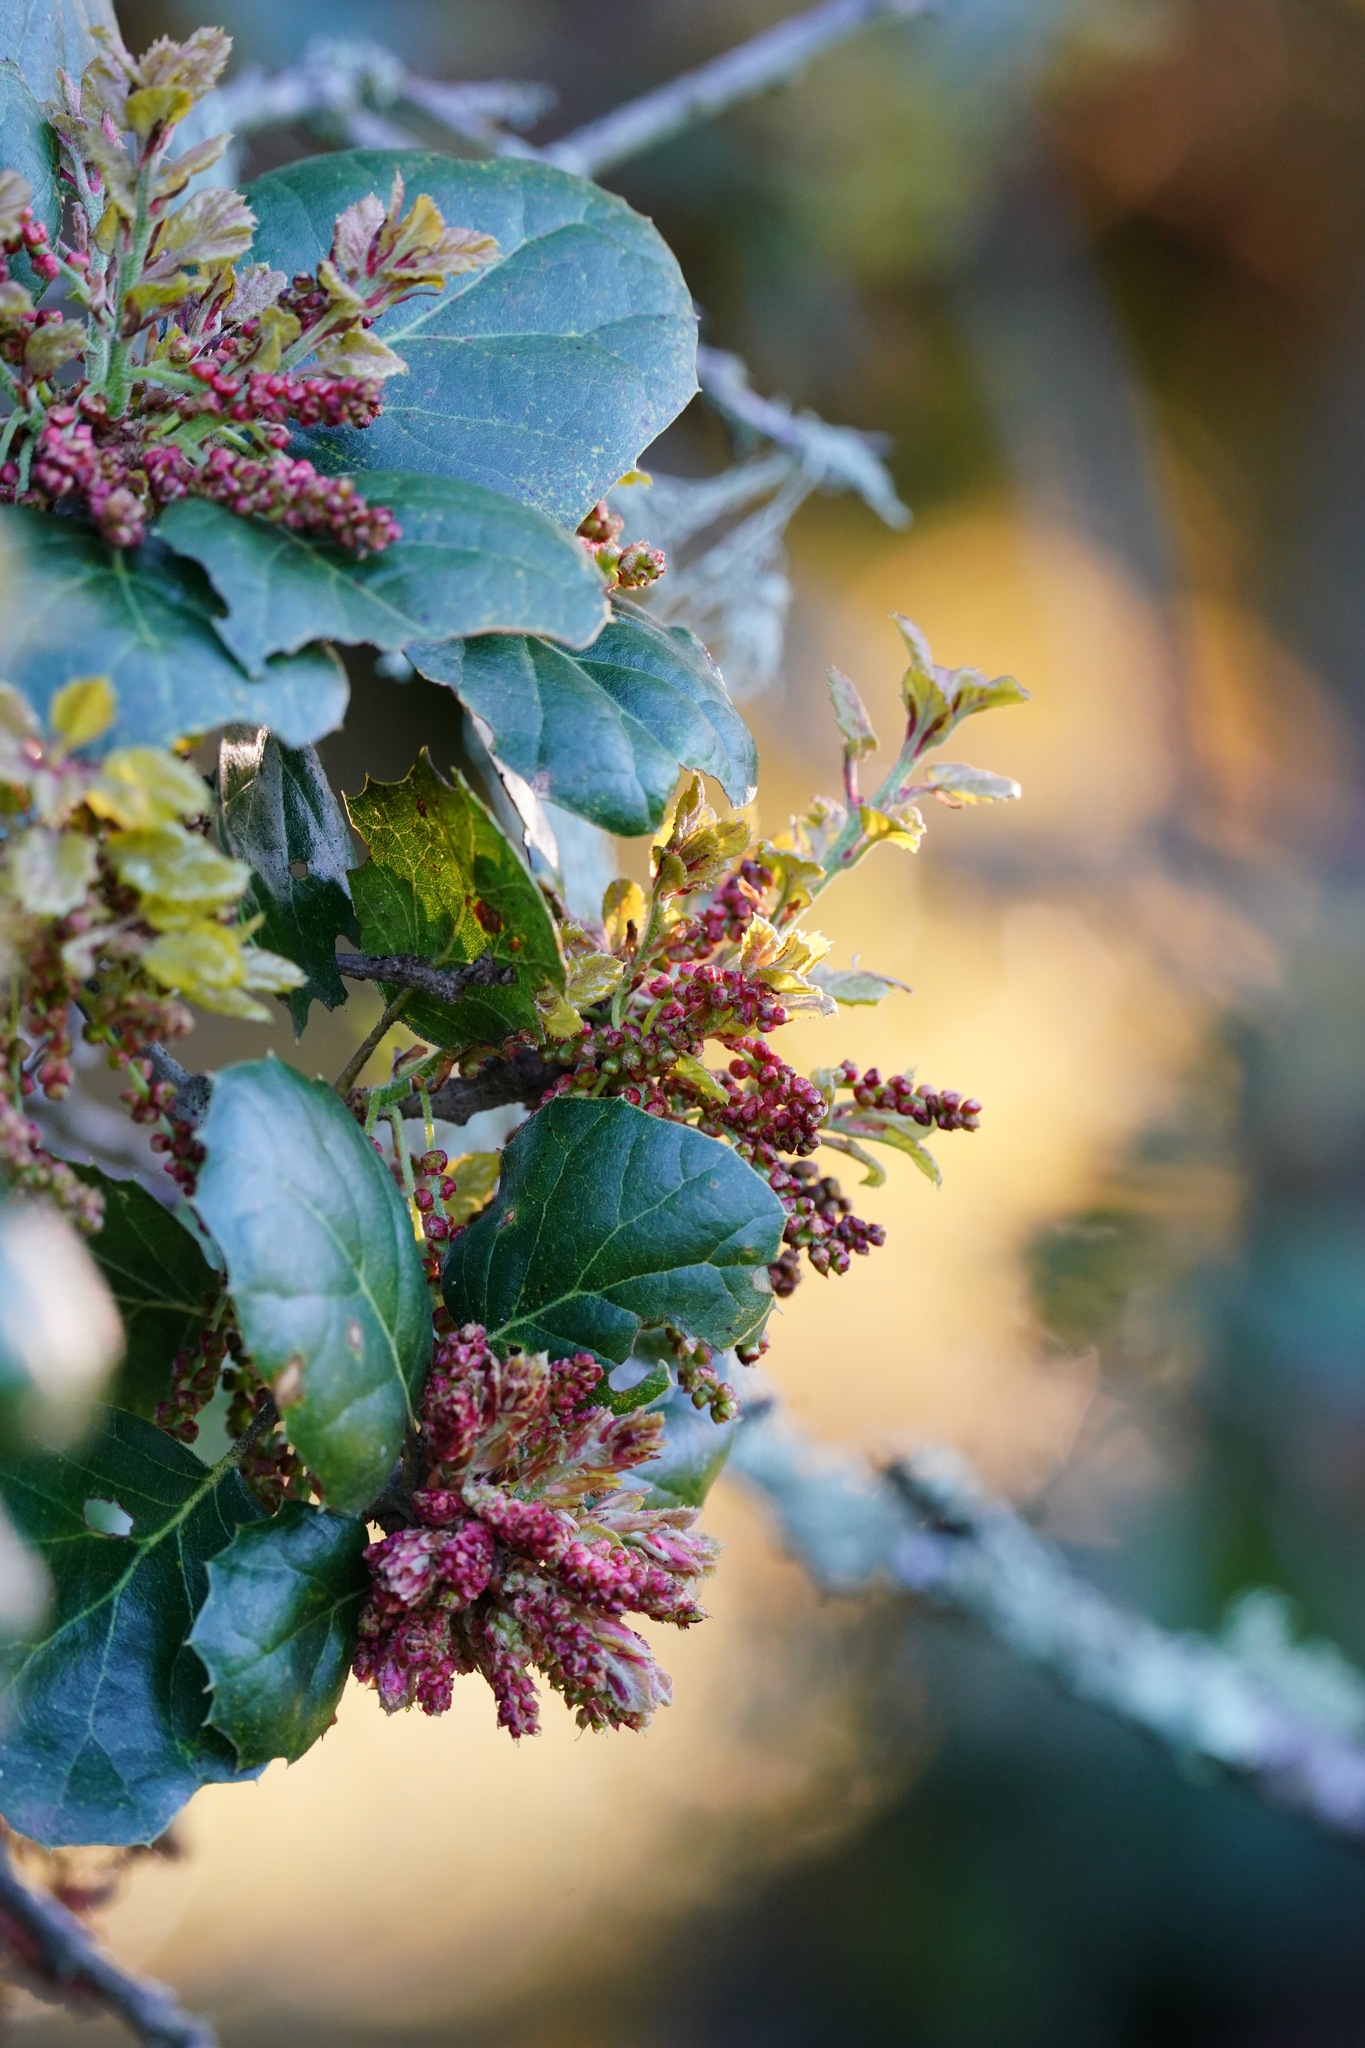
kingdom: Plantae
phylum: Tracheophyta
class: Magnoliopsida
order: Fagales
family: Fagaceae
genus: Quercus
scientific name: Quercus agrifolia
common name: California live oak
